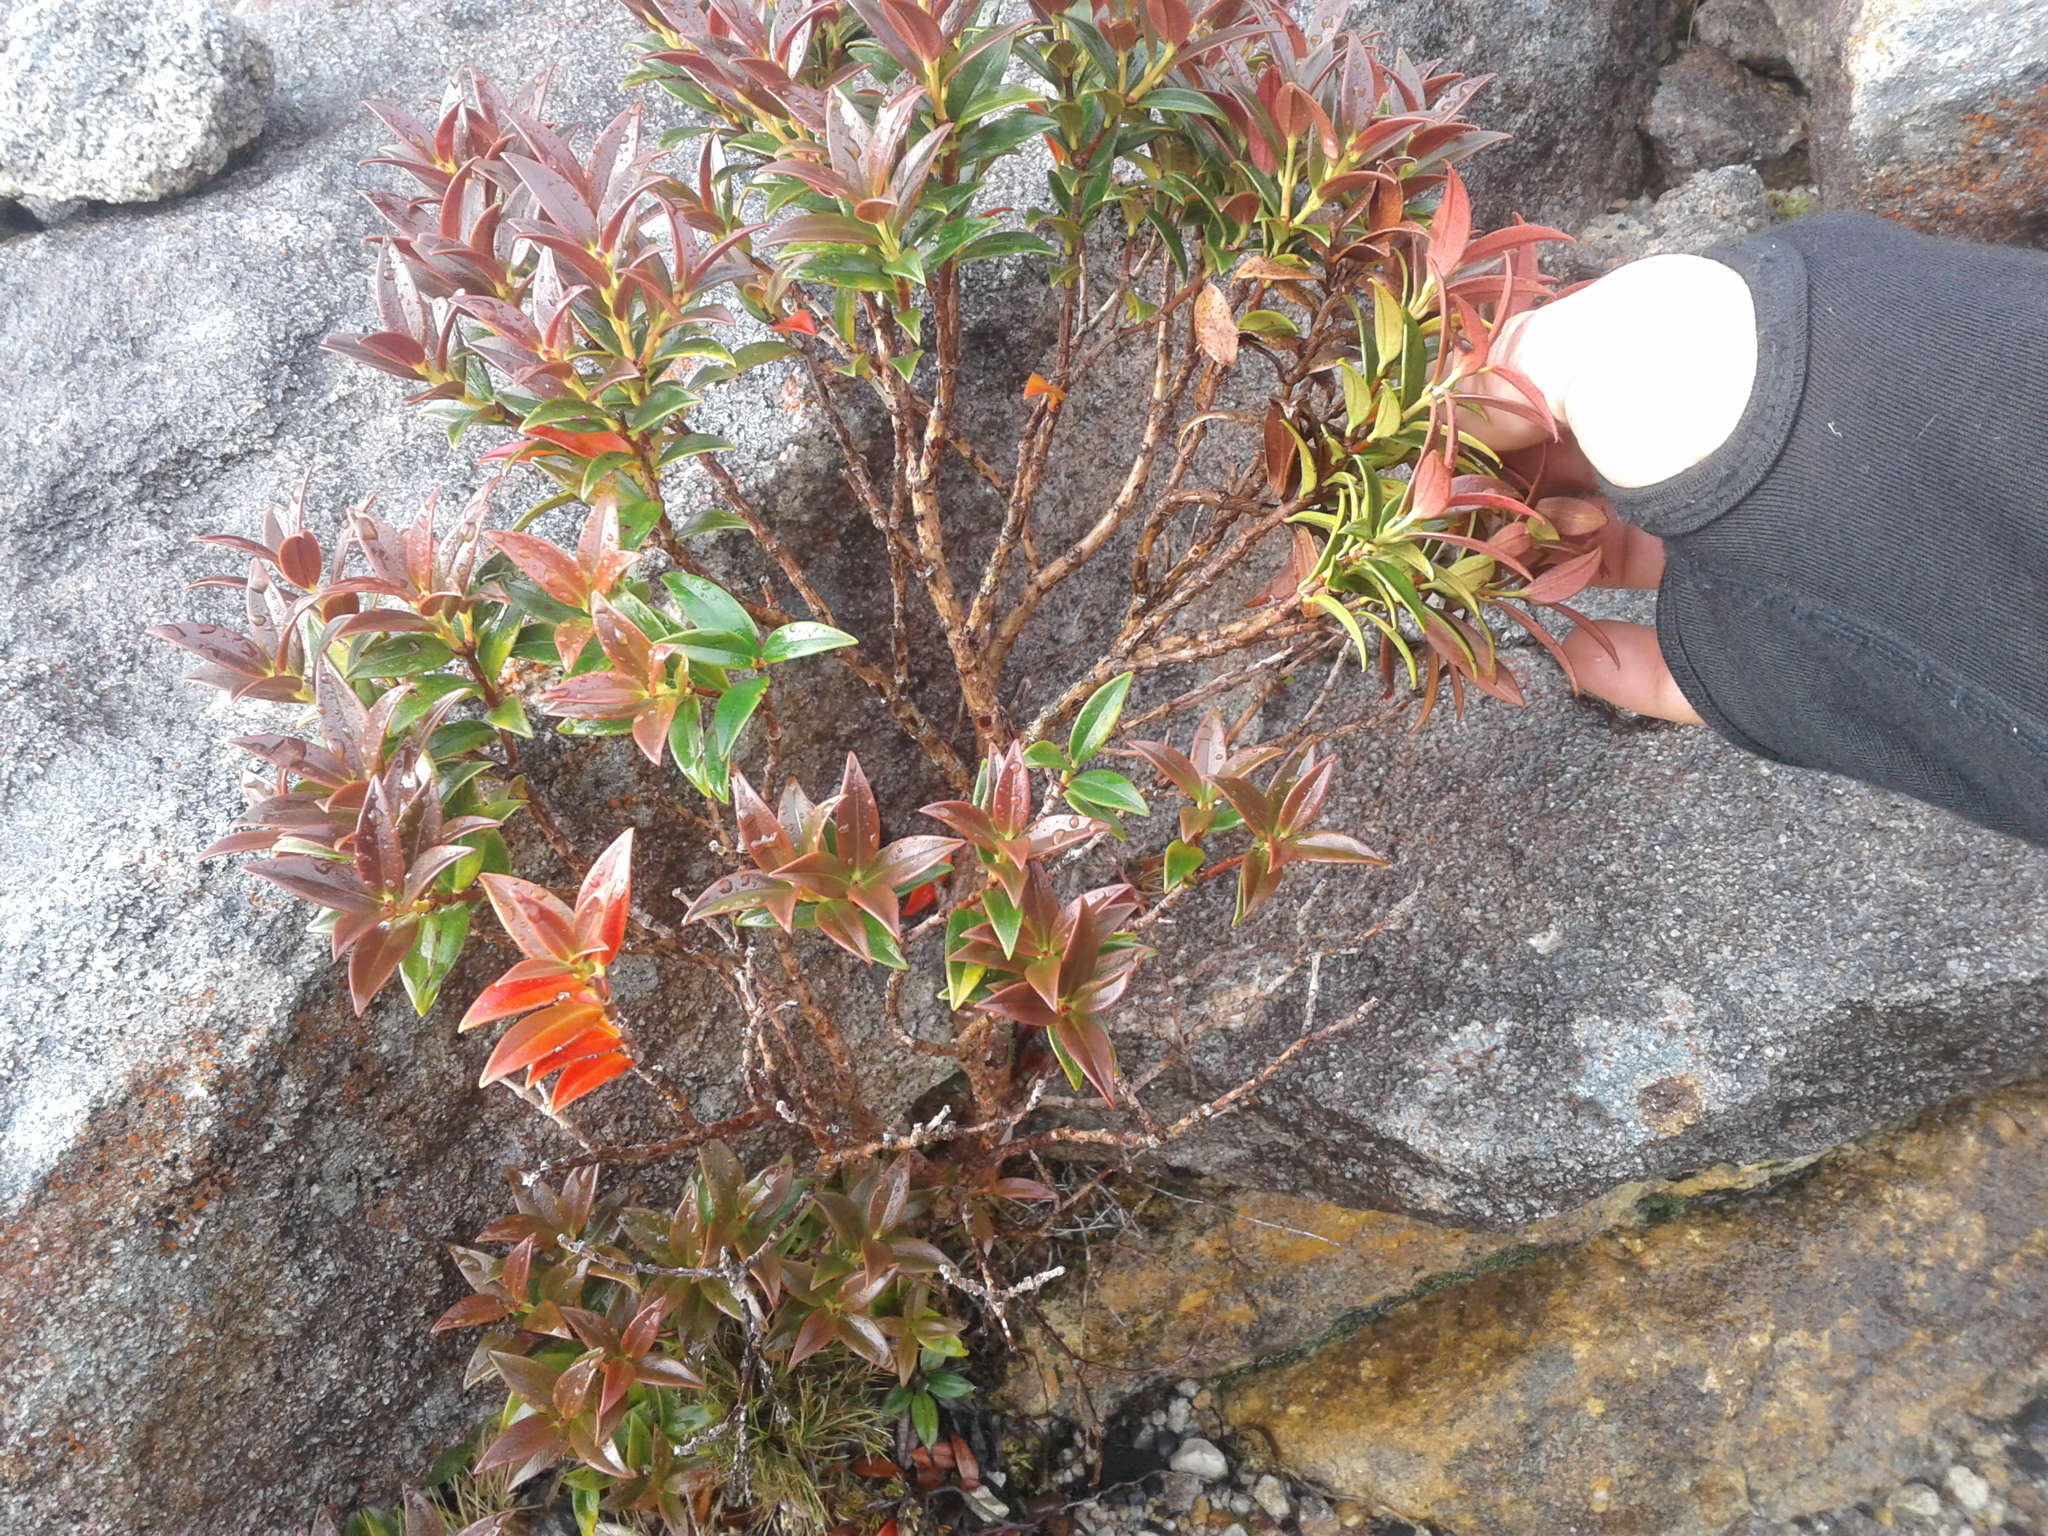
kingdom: Plantae
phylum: Tracheophyta
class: Magnoliopsida
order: Myrtales
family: Myrtaceae
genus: Metrosideros
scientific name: Metrosideros umbellata
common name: Southern rata
